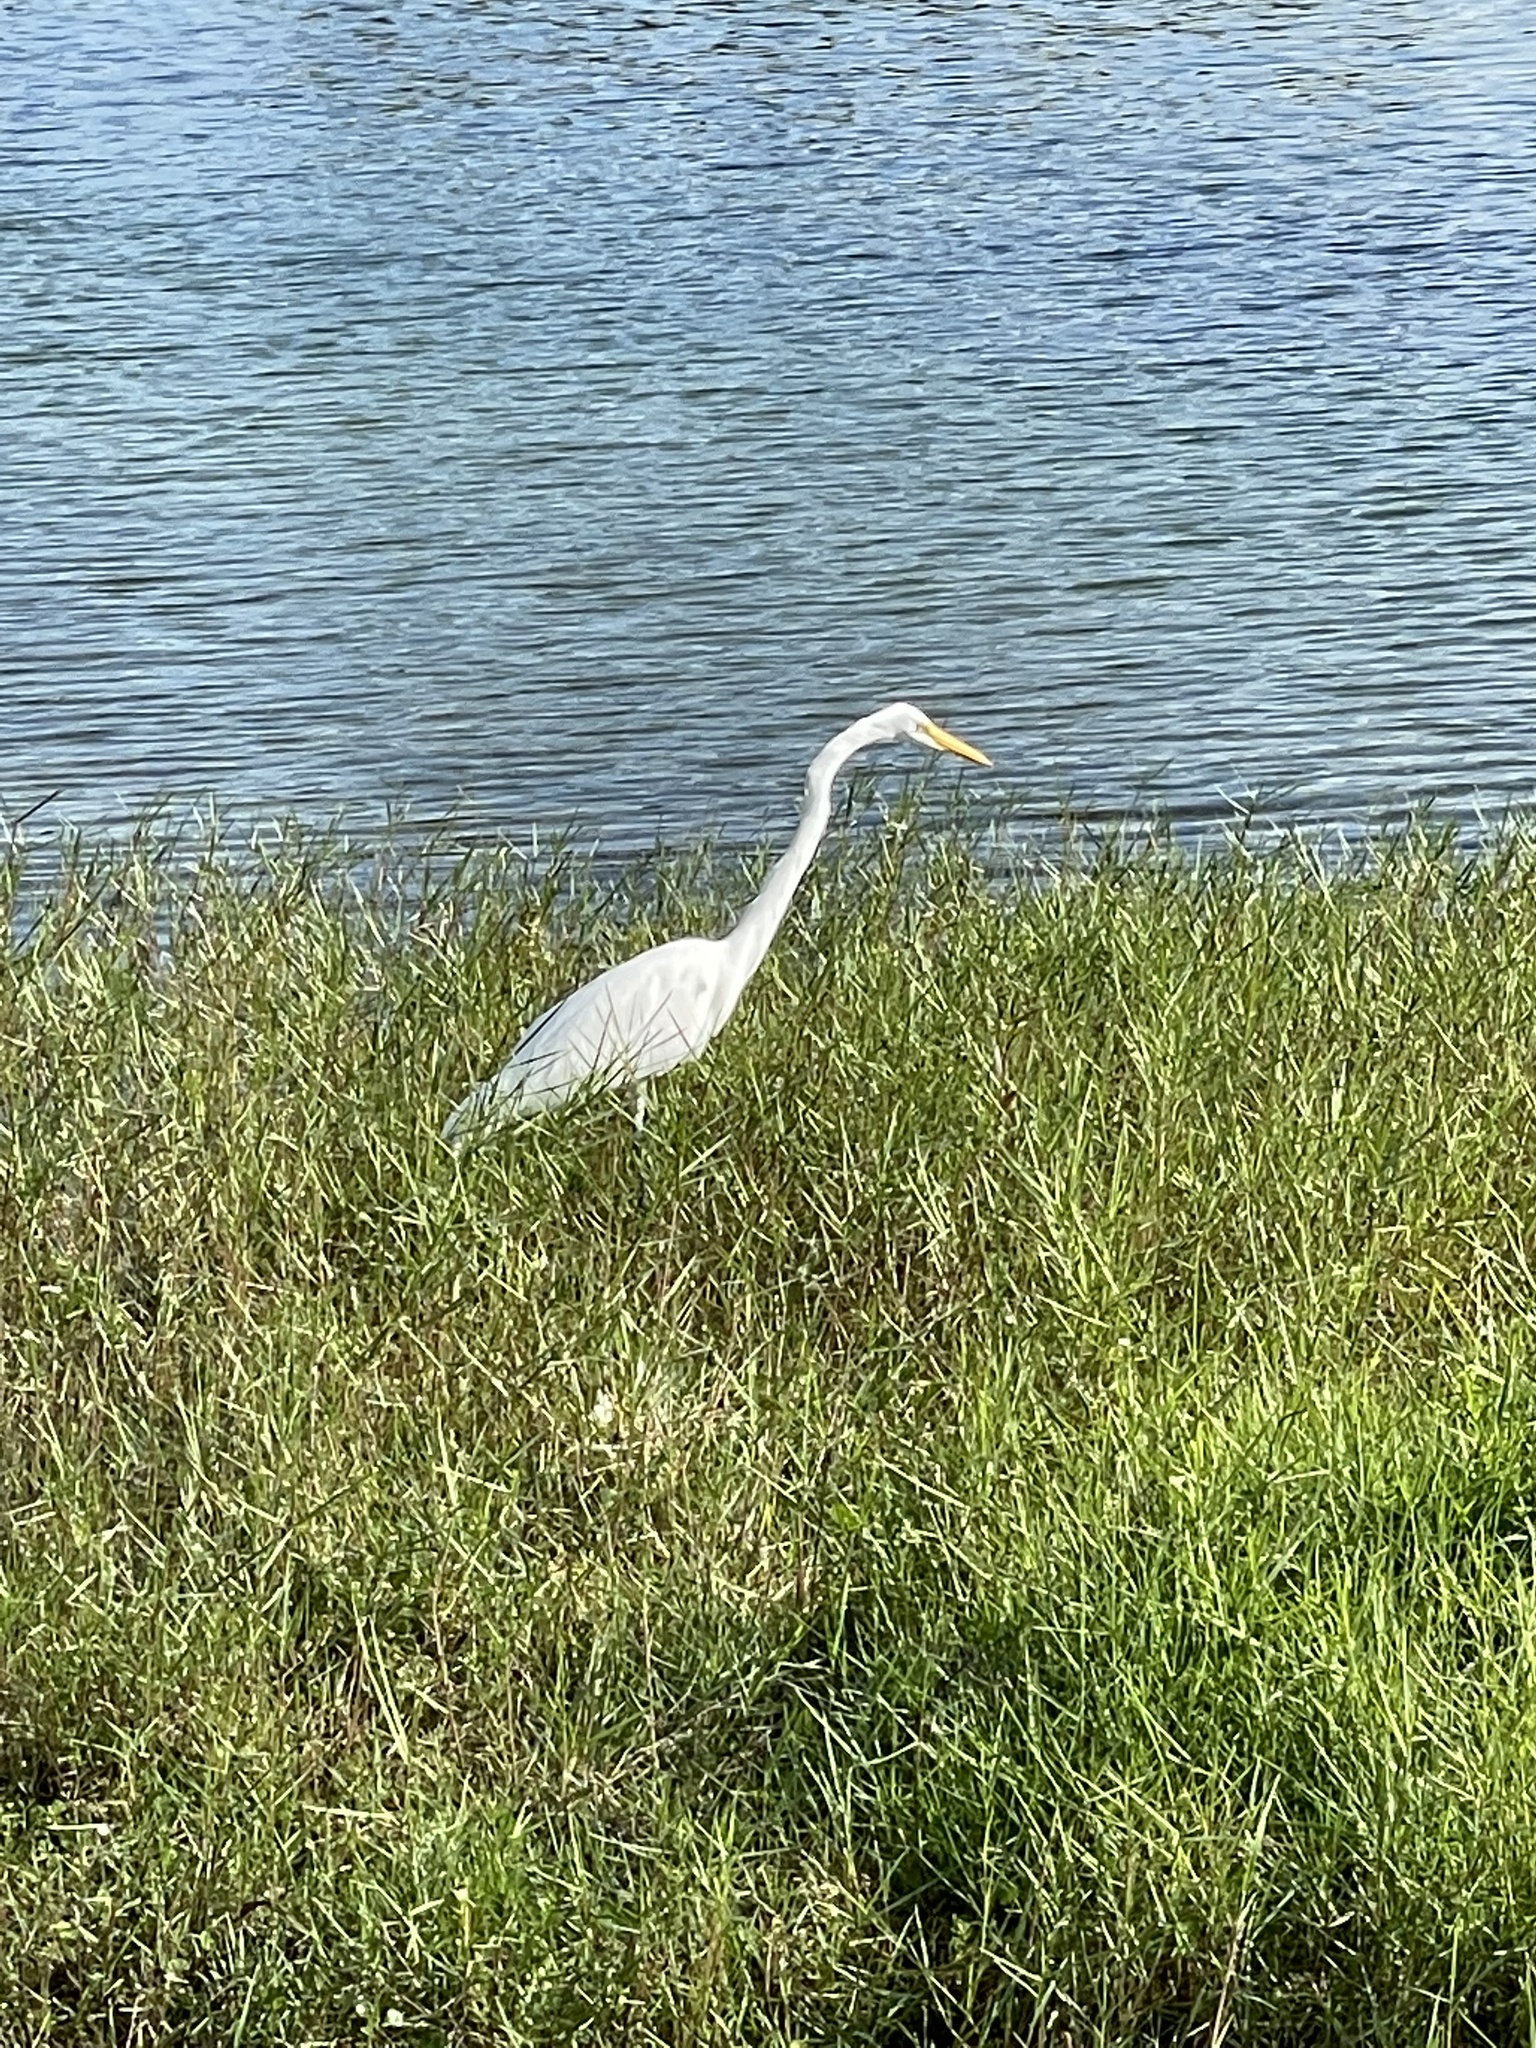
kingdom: Animalia
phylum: Chordata
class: Aves
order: Pelecaniformes
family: Ardeidae
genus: Ardea
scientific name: Ardea alba
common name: Great egret
